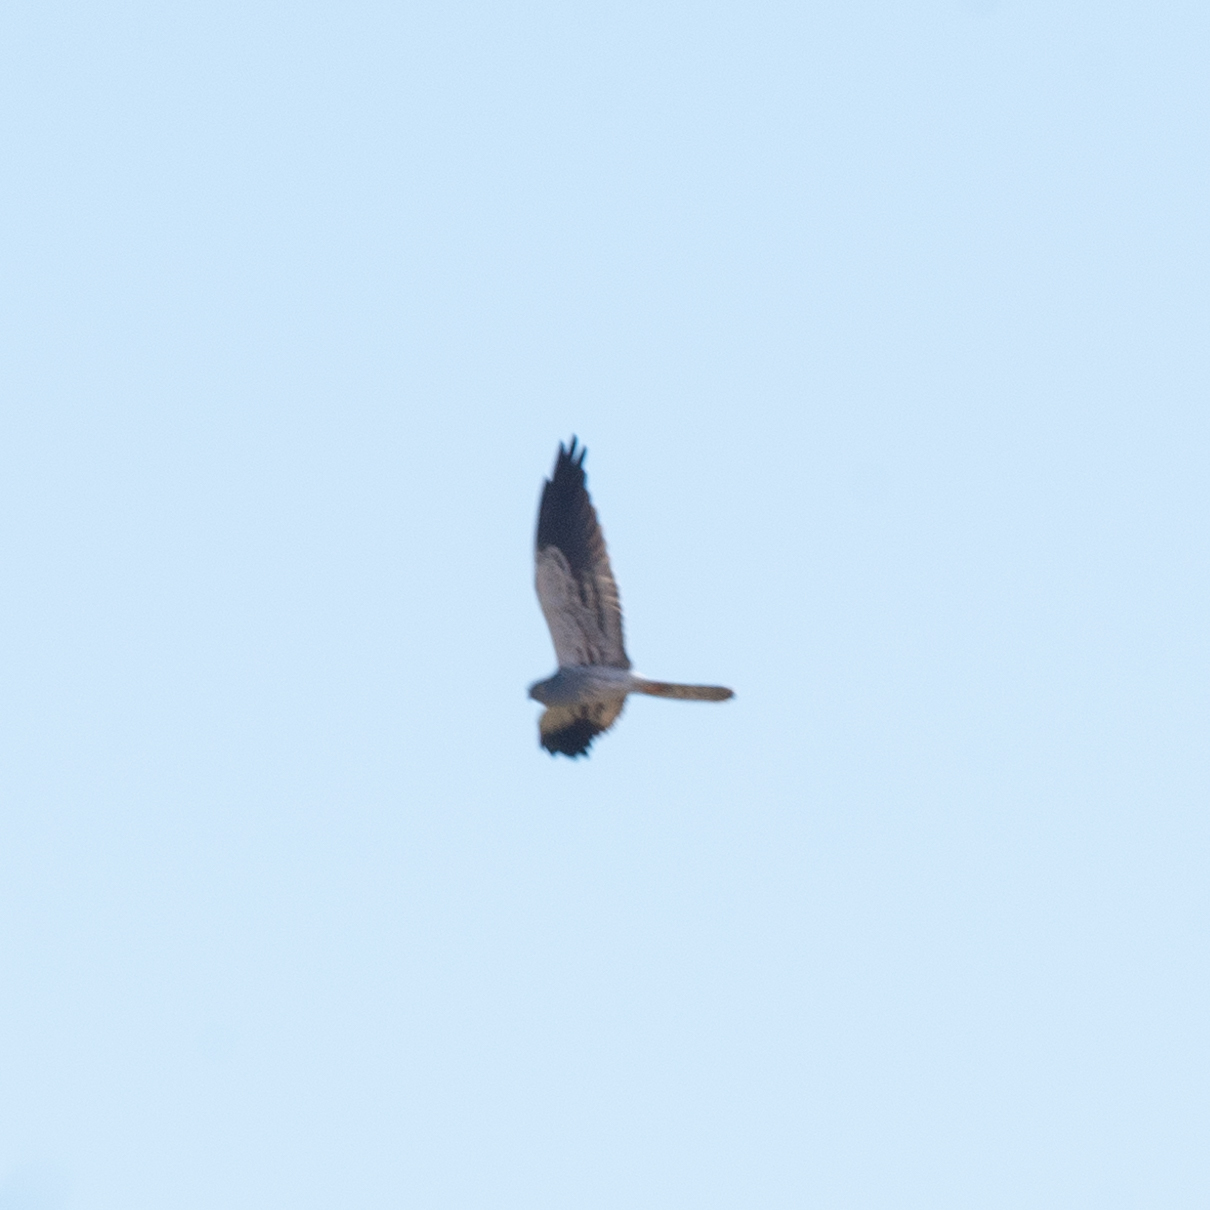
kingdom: Animalia
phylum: Chordata
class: Aves
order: Accipitriformes
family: Accipitridae
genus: Circus
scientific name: Circus pygargus
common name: Montagu's harrier
